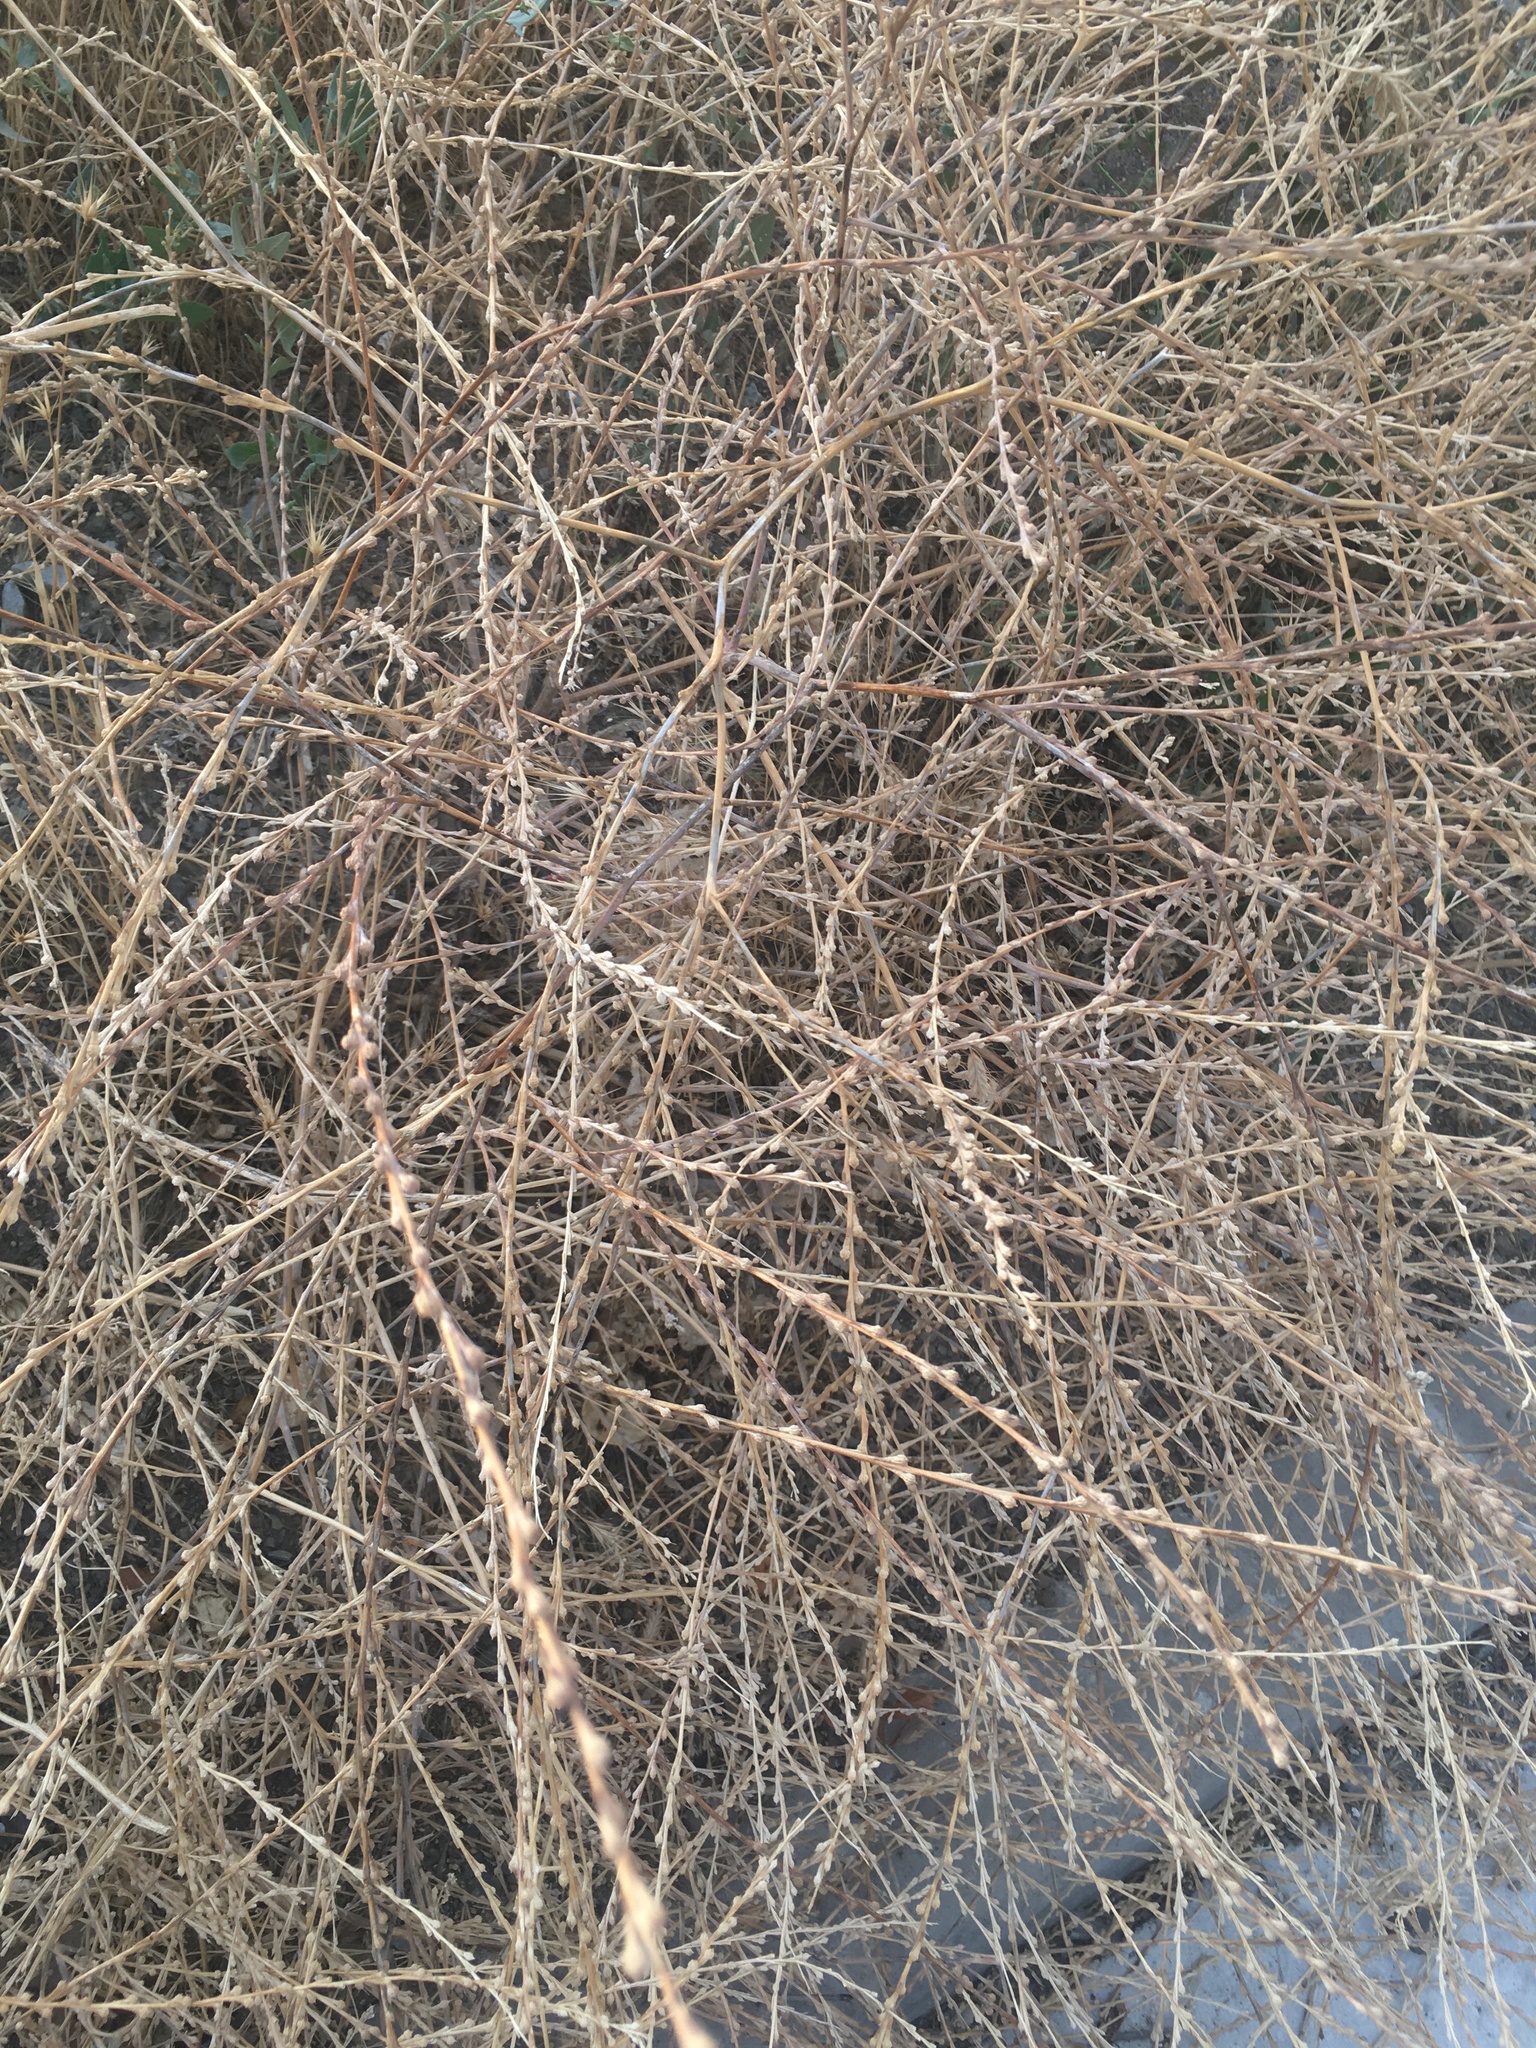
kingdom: Plantae
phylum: Tracheophyta
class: Magnoliopsida
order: Brassicales
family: Brassicaceae
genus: Rapistrum
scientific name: Rapistrum rugosum
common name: Annual bastardcabbage
